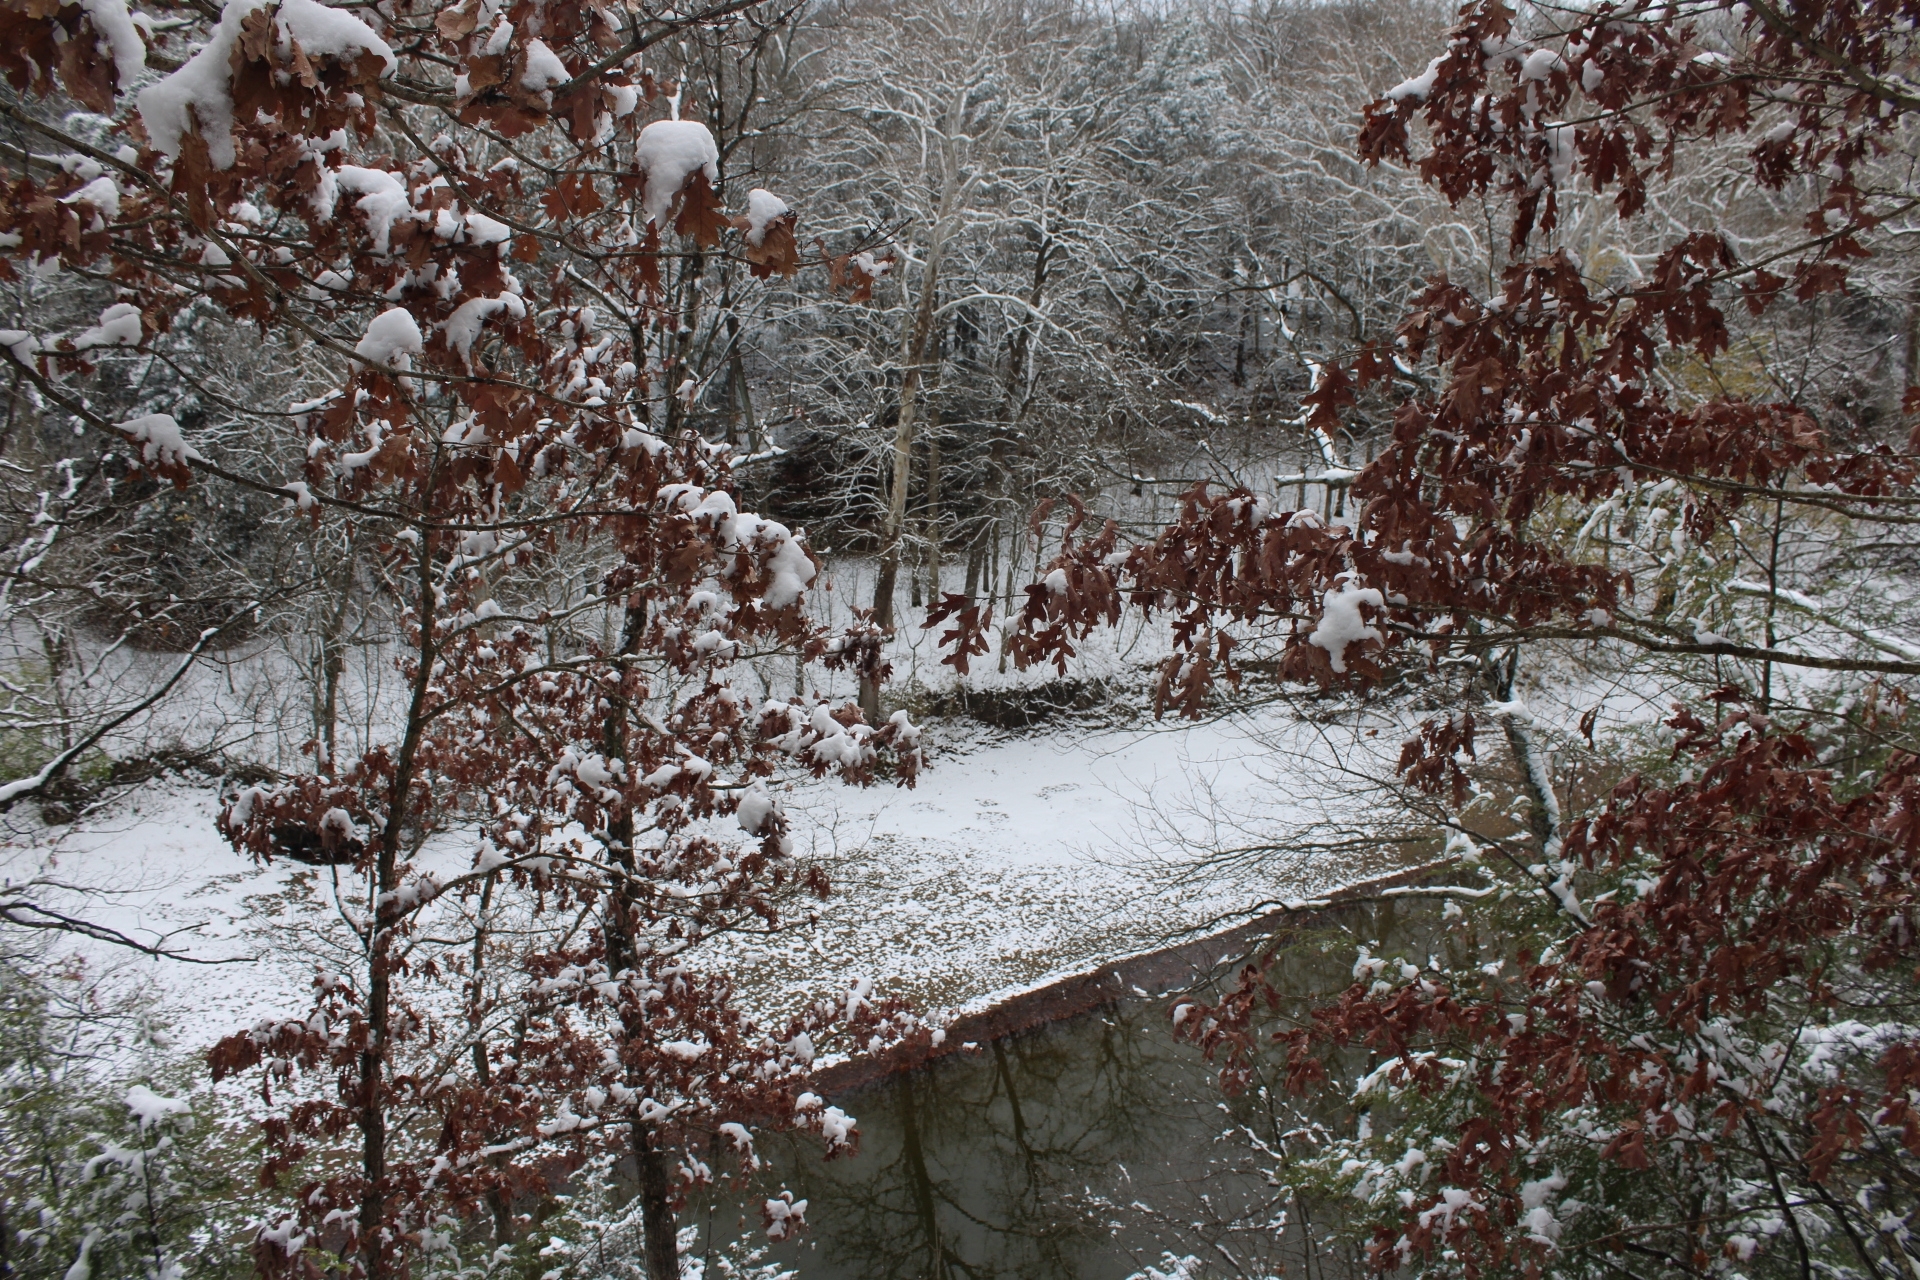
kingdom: Plantae
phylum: Tracheophyta
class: Magnoliopsida
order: Fagales
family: Fagaceae
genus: Quercus
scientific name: Quercus alba
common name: White oak
